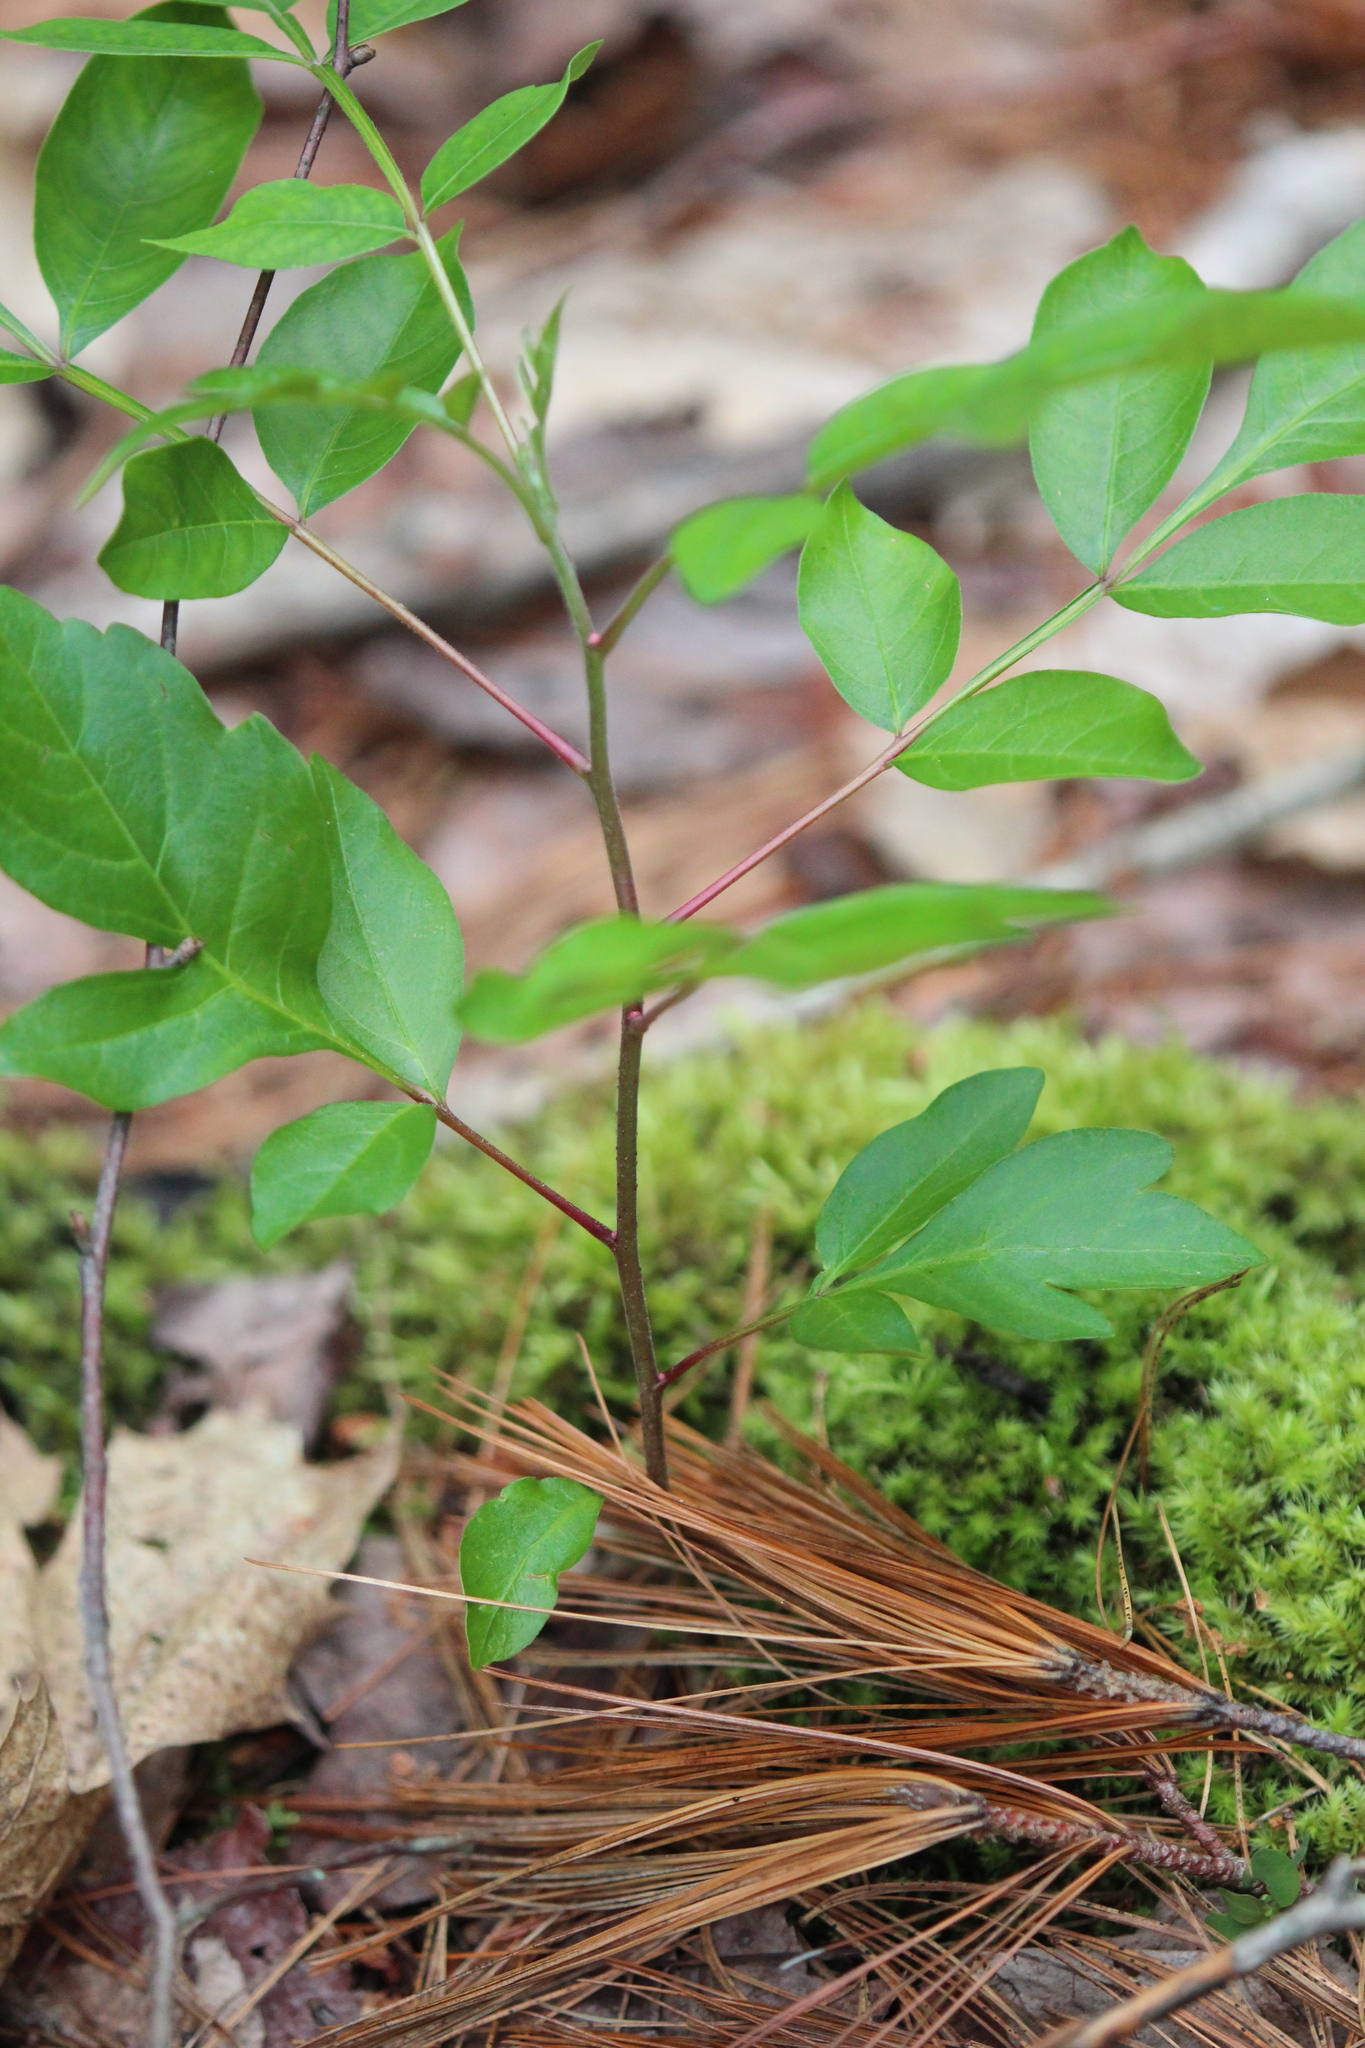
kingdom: Plantae
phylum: Tracheophyta
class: Magnoliopsida
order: Sapindales
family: Anacardiaceae
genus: Rhus
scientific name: Rhus copallina
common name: Shining sumac
